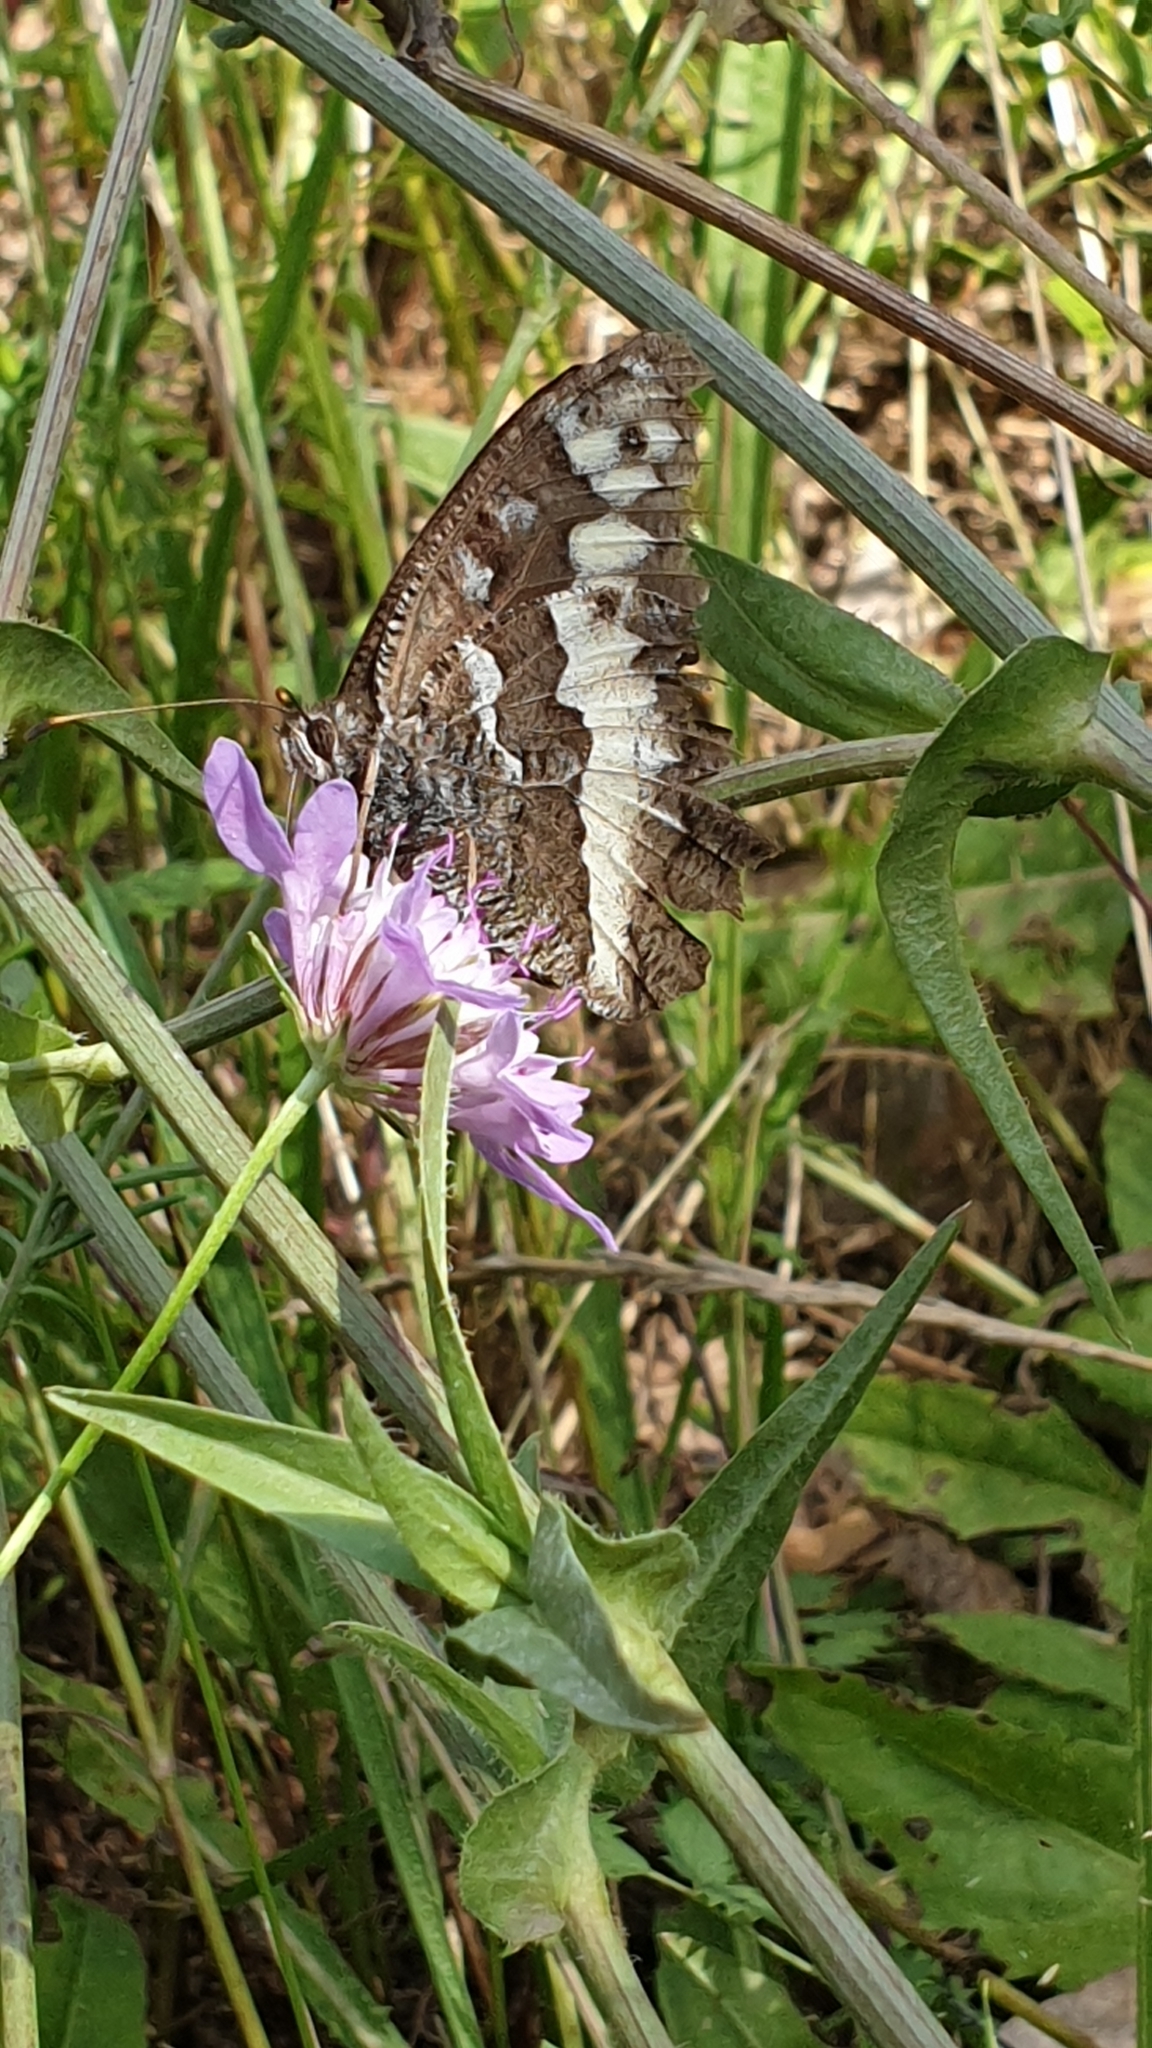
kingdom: Animalia
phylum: Arthropoda
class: Insecta
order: Lepidoptera
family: Lycaenidae
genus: Loweia
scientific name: Loweia tityrus
